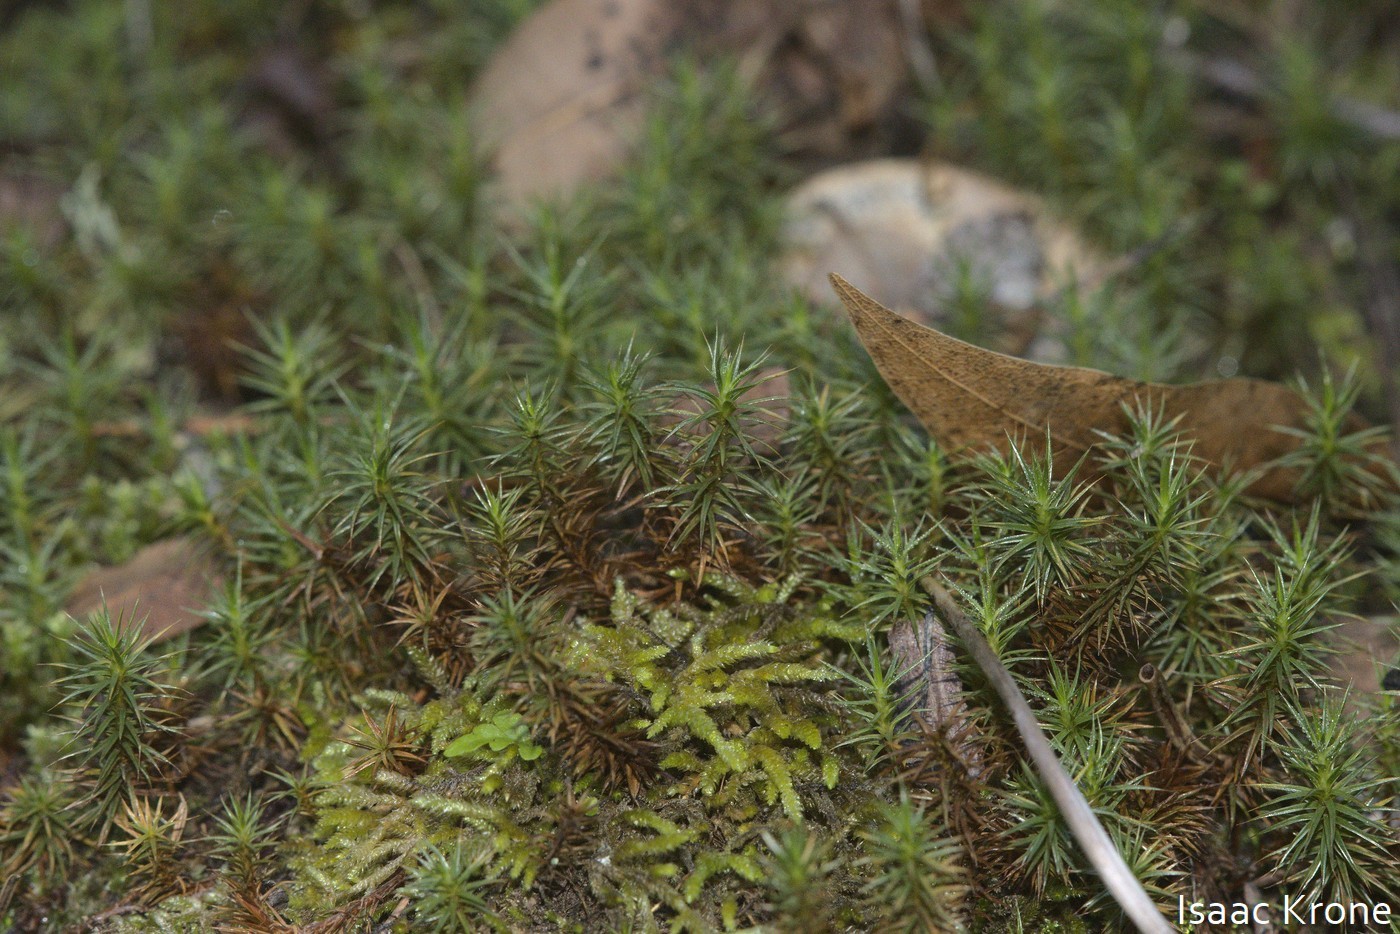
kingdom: Plantae
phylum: Bryophyta
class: Polytrichopsida
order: Polytrichales
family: Polytrichaceae
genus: Polytrichum
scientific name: Polytrichum juniperinum
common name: Juniper haircap moss
